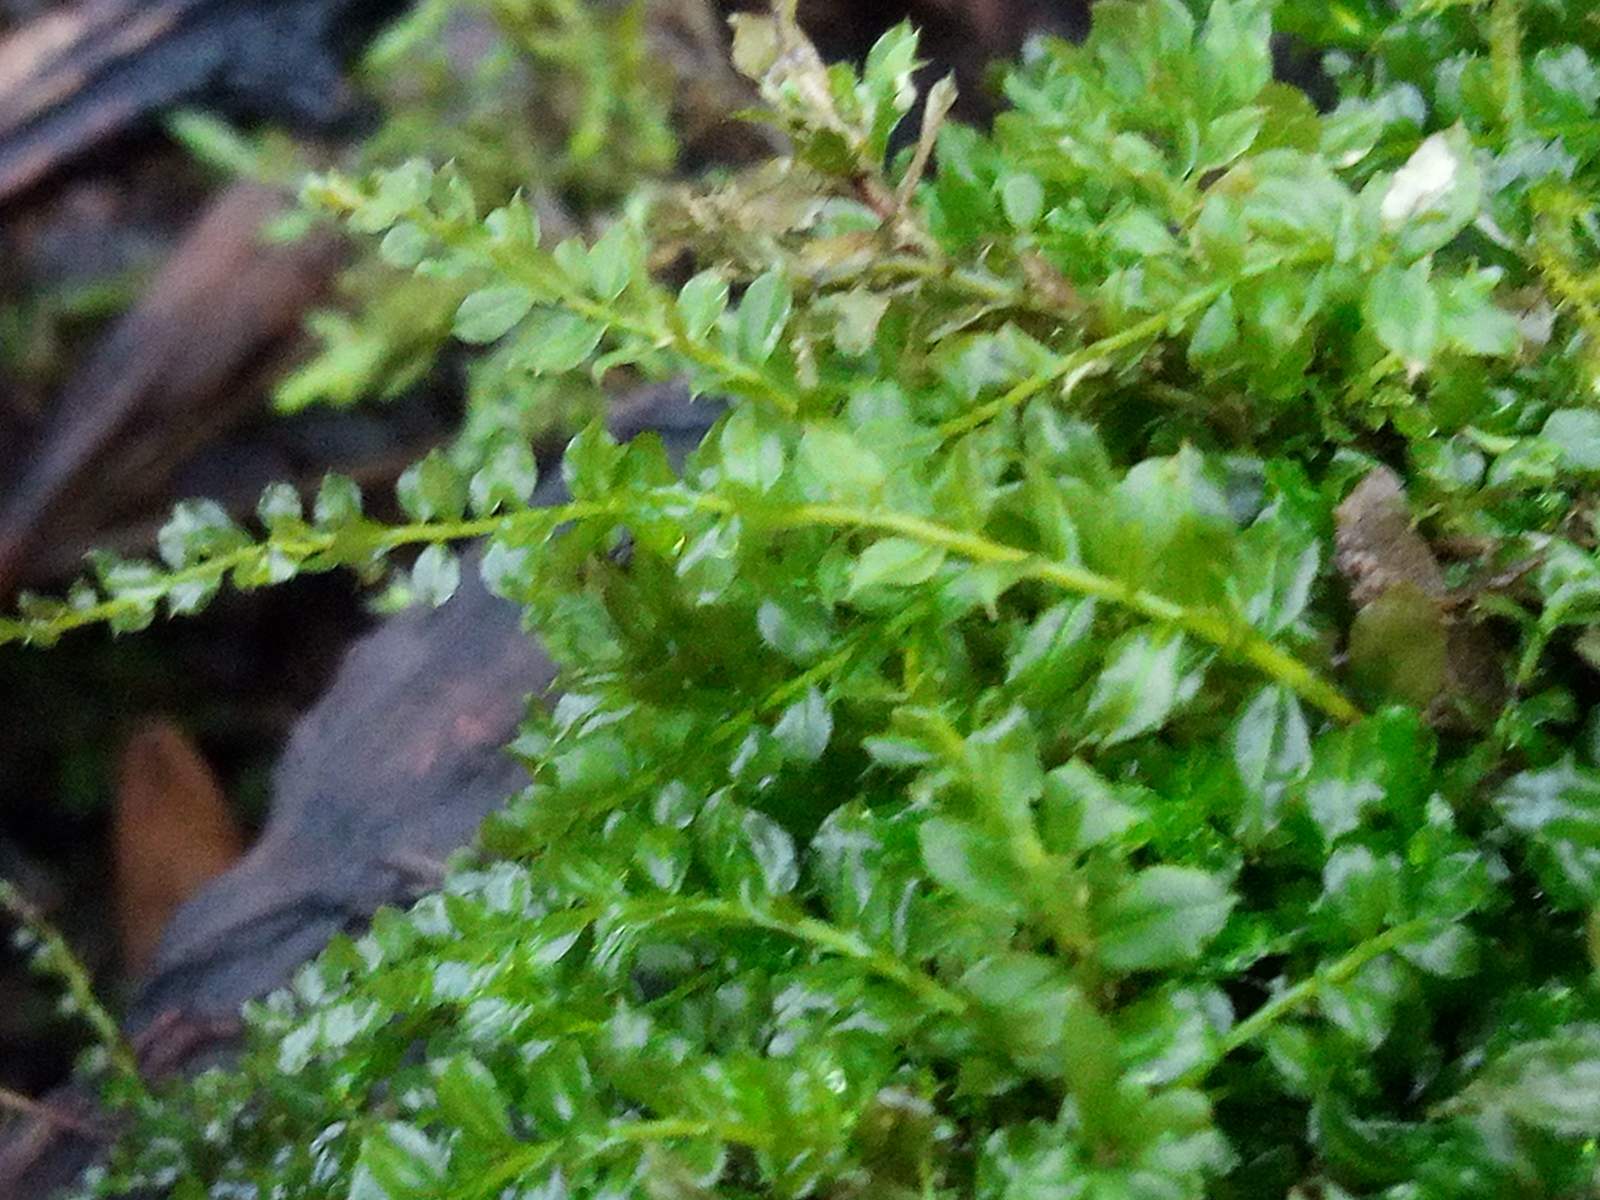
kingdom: Plantae
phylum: Bryophyta
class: Bryopsida
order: Bryales
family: Mniaceae
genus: Plagiomnium
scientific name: Plagiomnium cuspidatum
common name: Woodsy leafy moss
